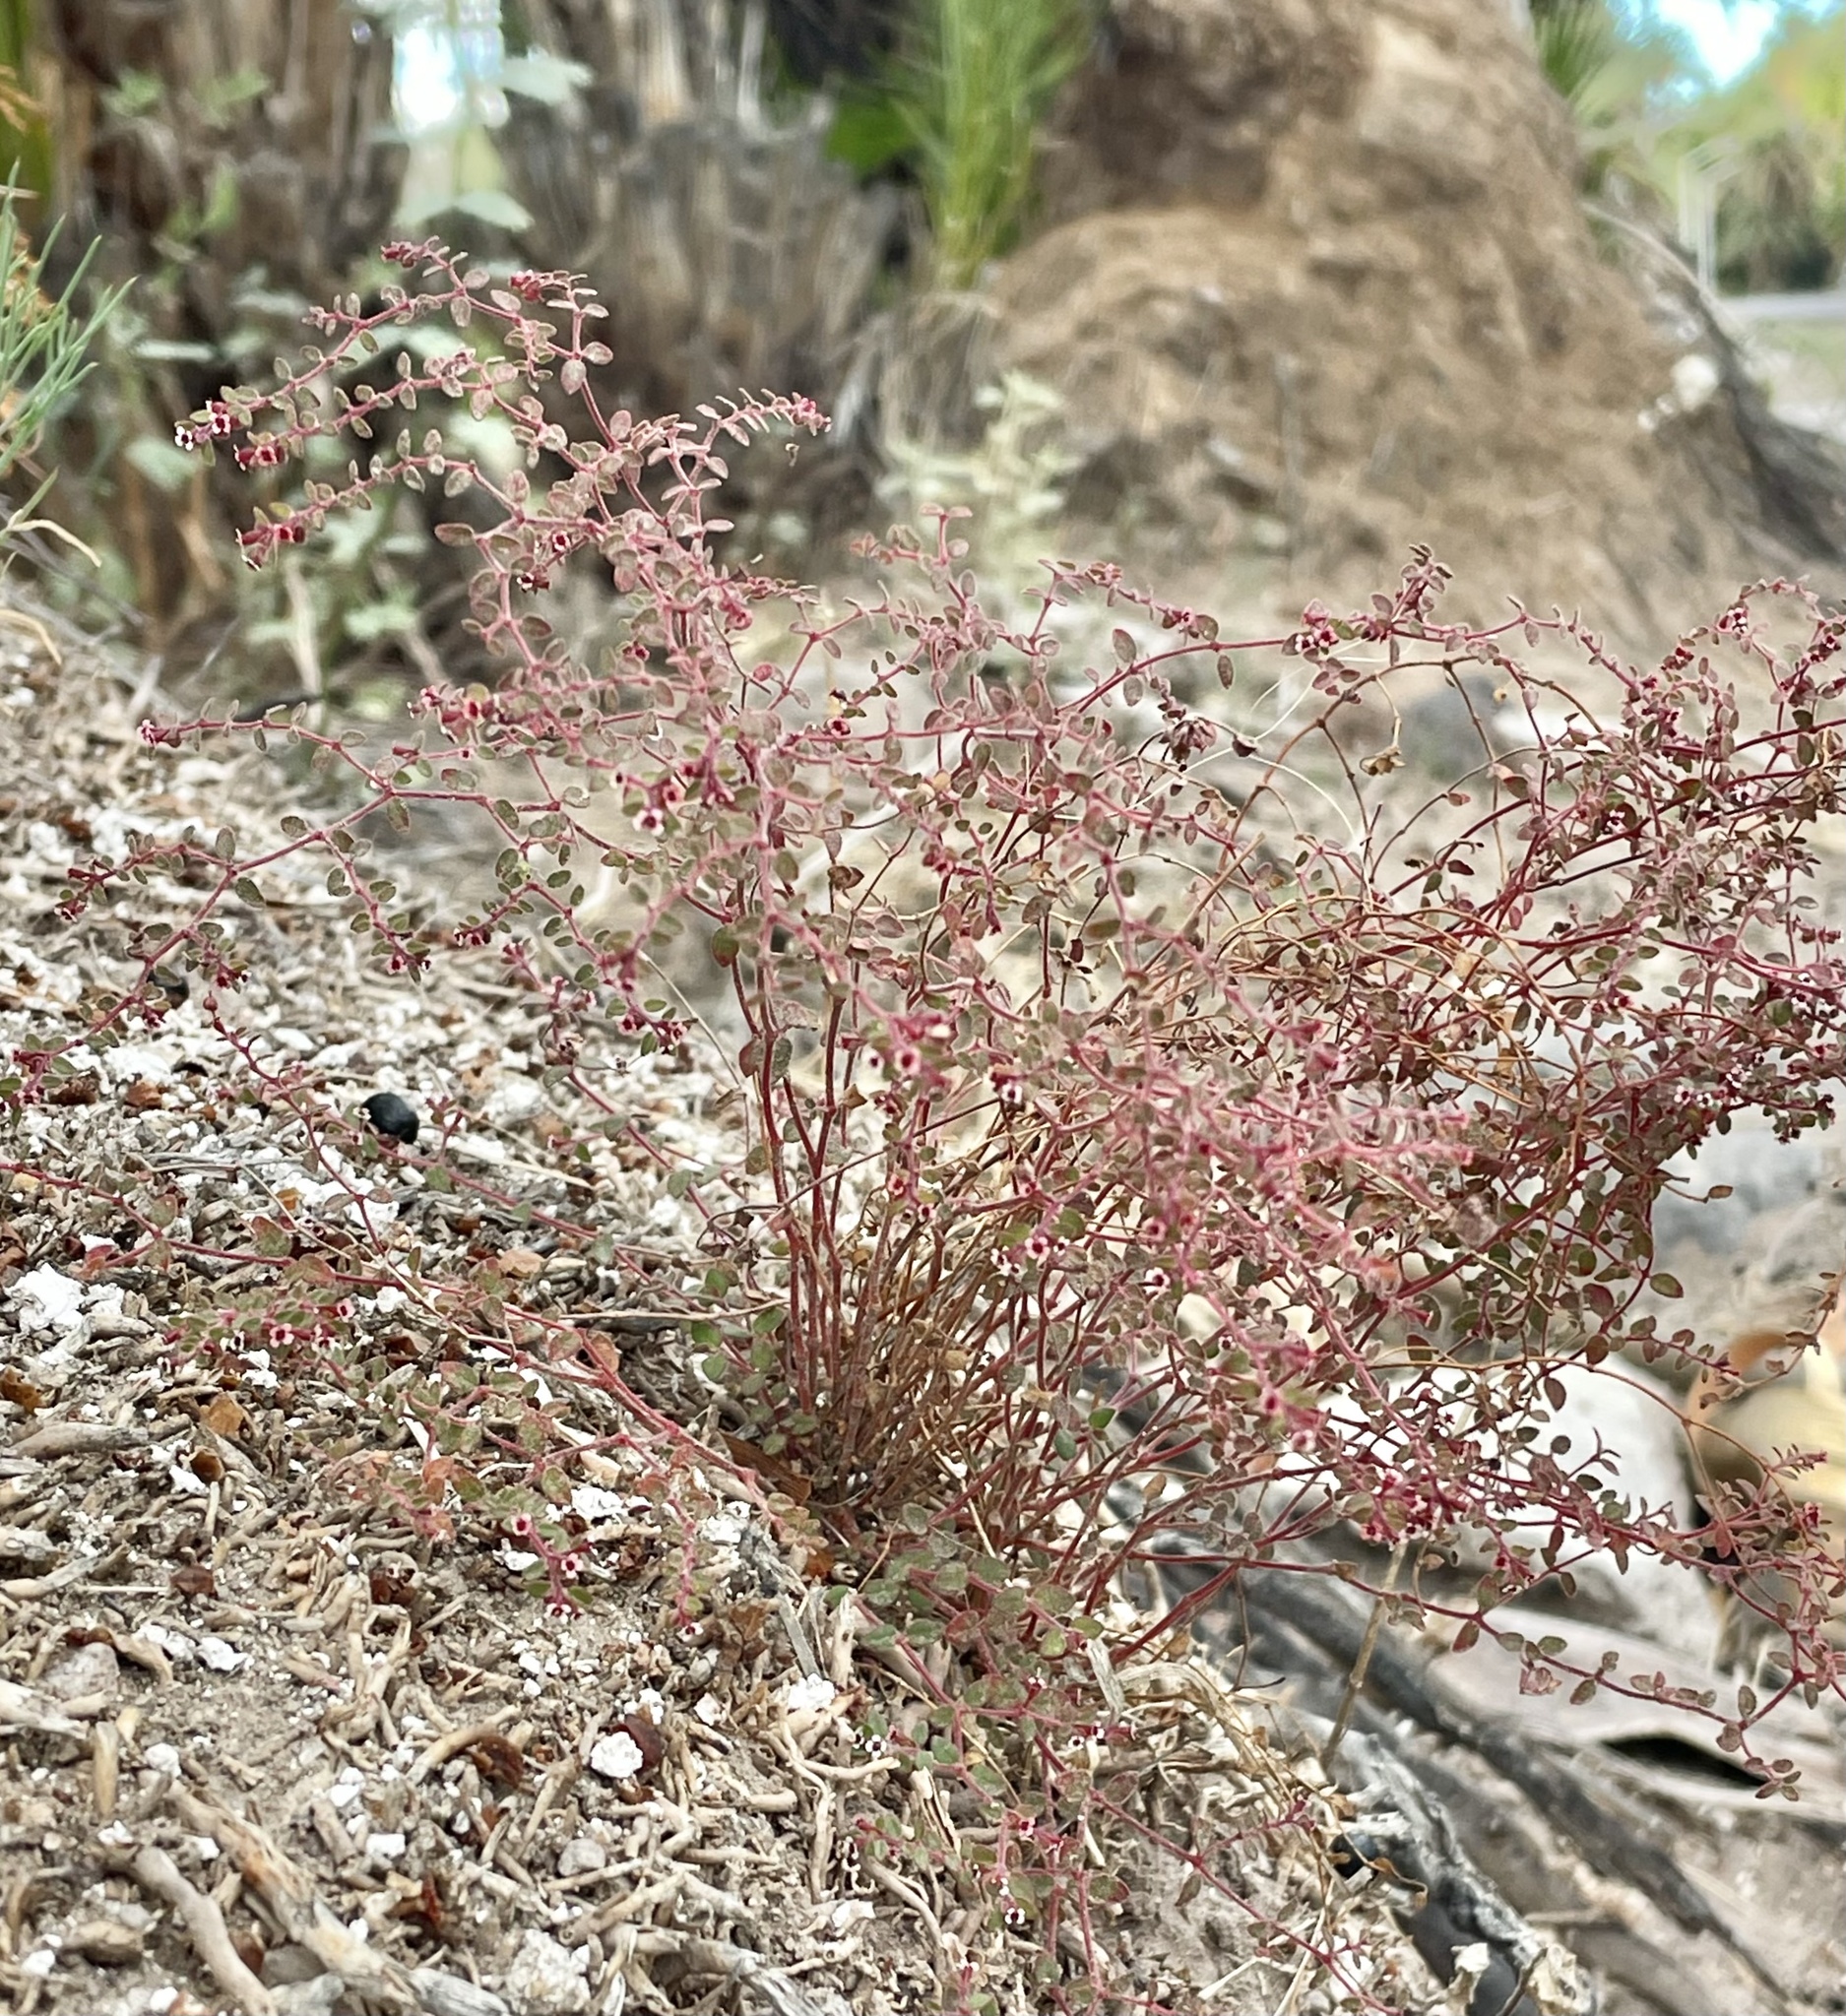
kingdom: Plantae
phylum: Tracheophyta
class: Magnoliopsida
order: Malpighiales
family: Euphorbiaceae
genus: Euphorbia
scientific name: Euphorbia arizonica
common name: Arizona spurge
